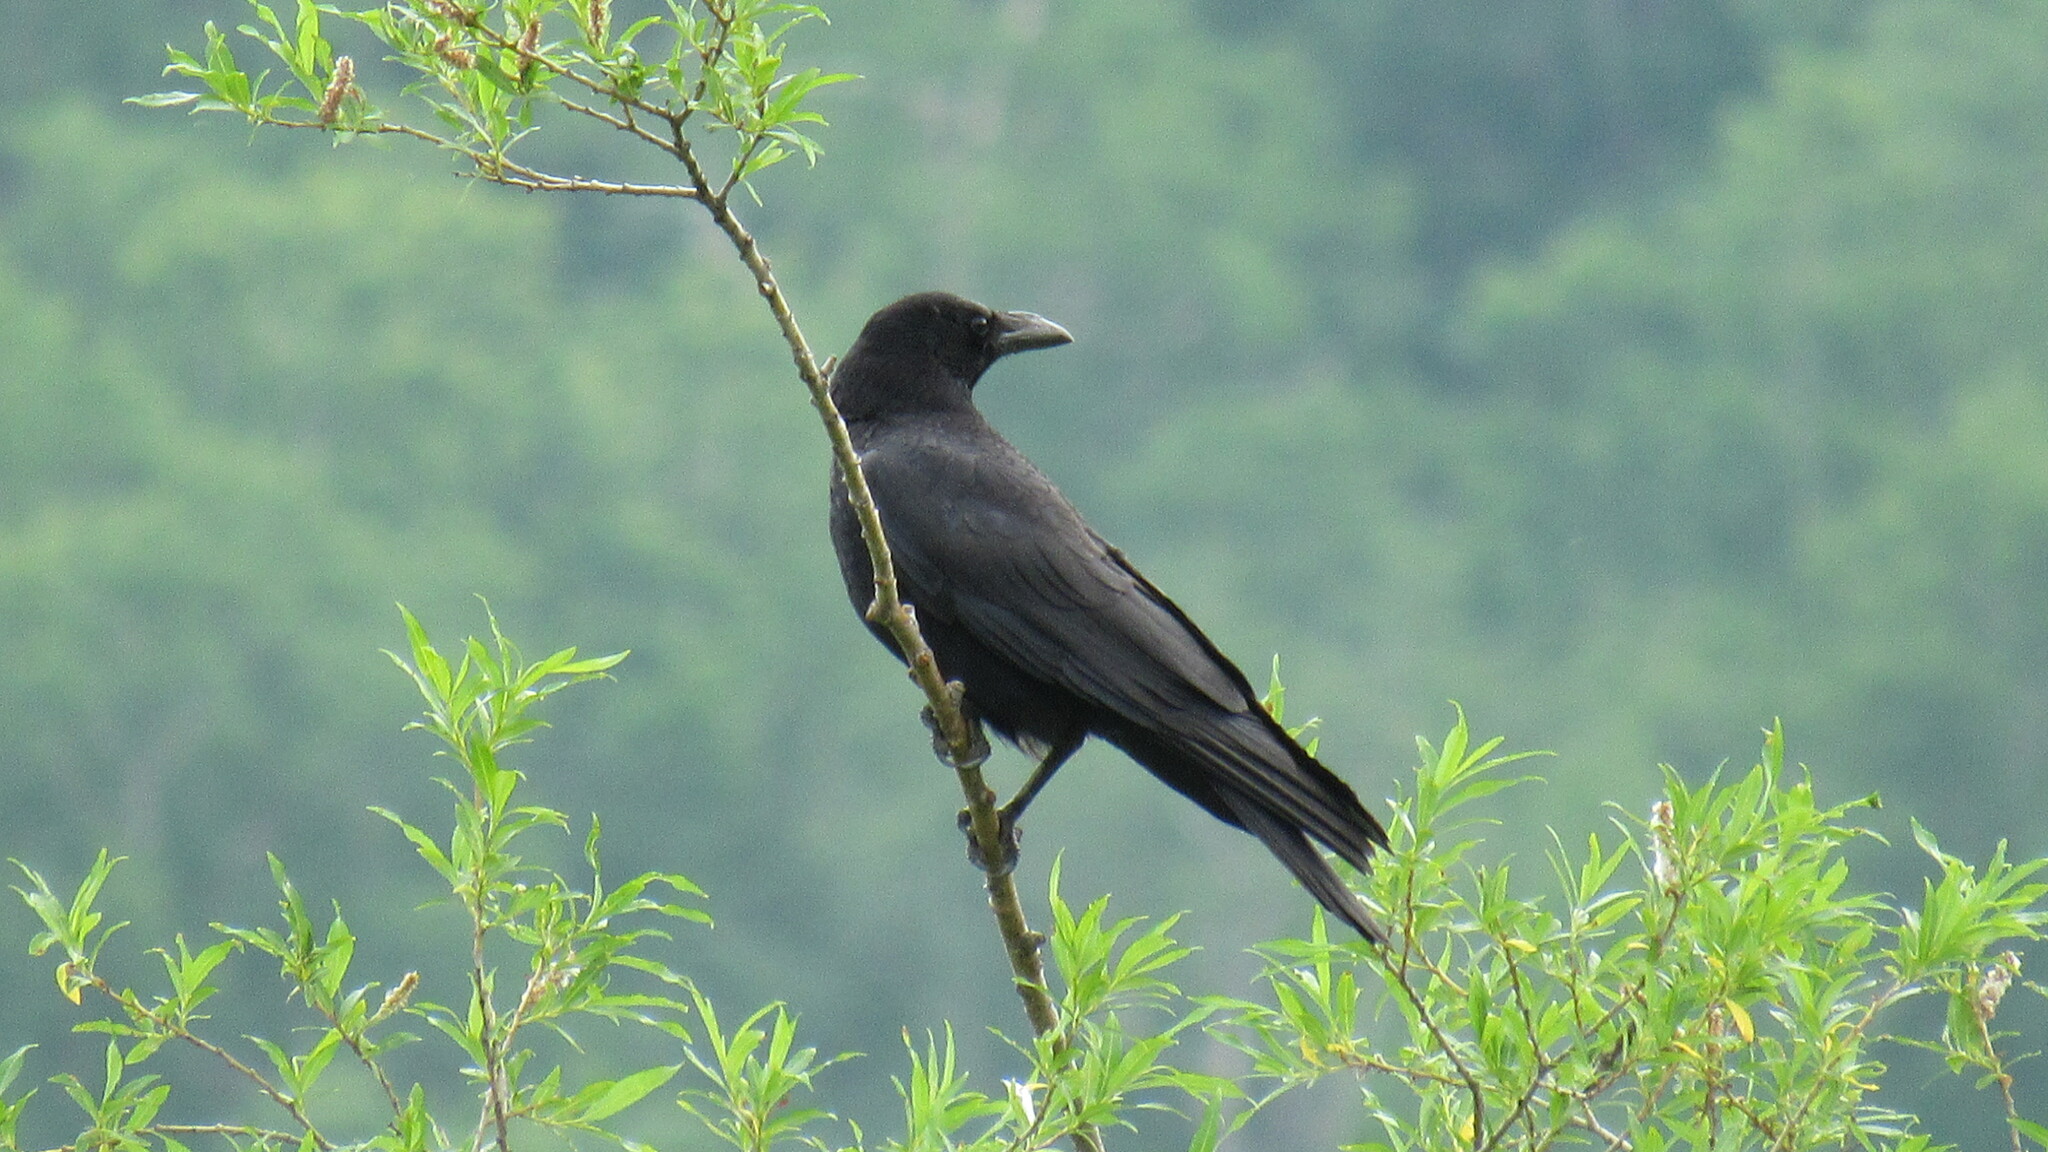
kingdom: Animalia
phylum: Chordata
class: Aves
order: Passeriformes
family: Corvidae
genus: Corvus
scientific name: Corvus corone
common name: Carrion crow
